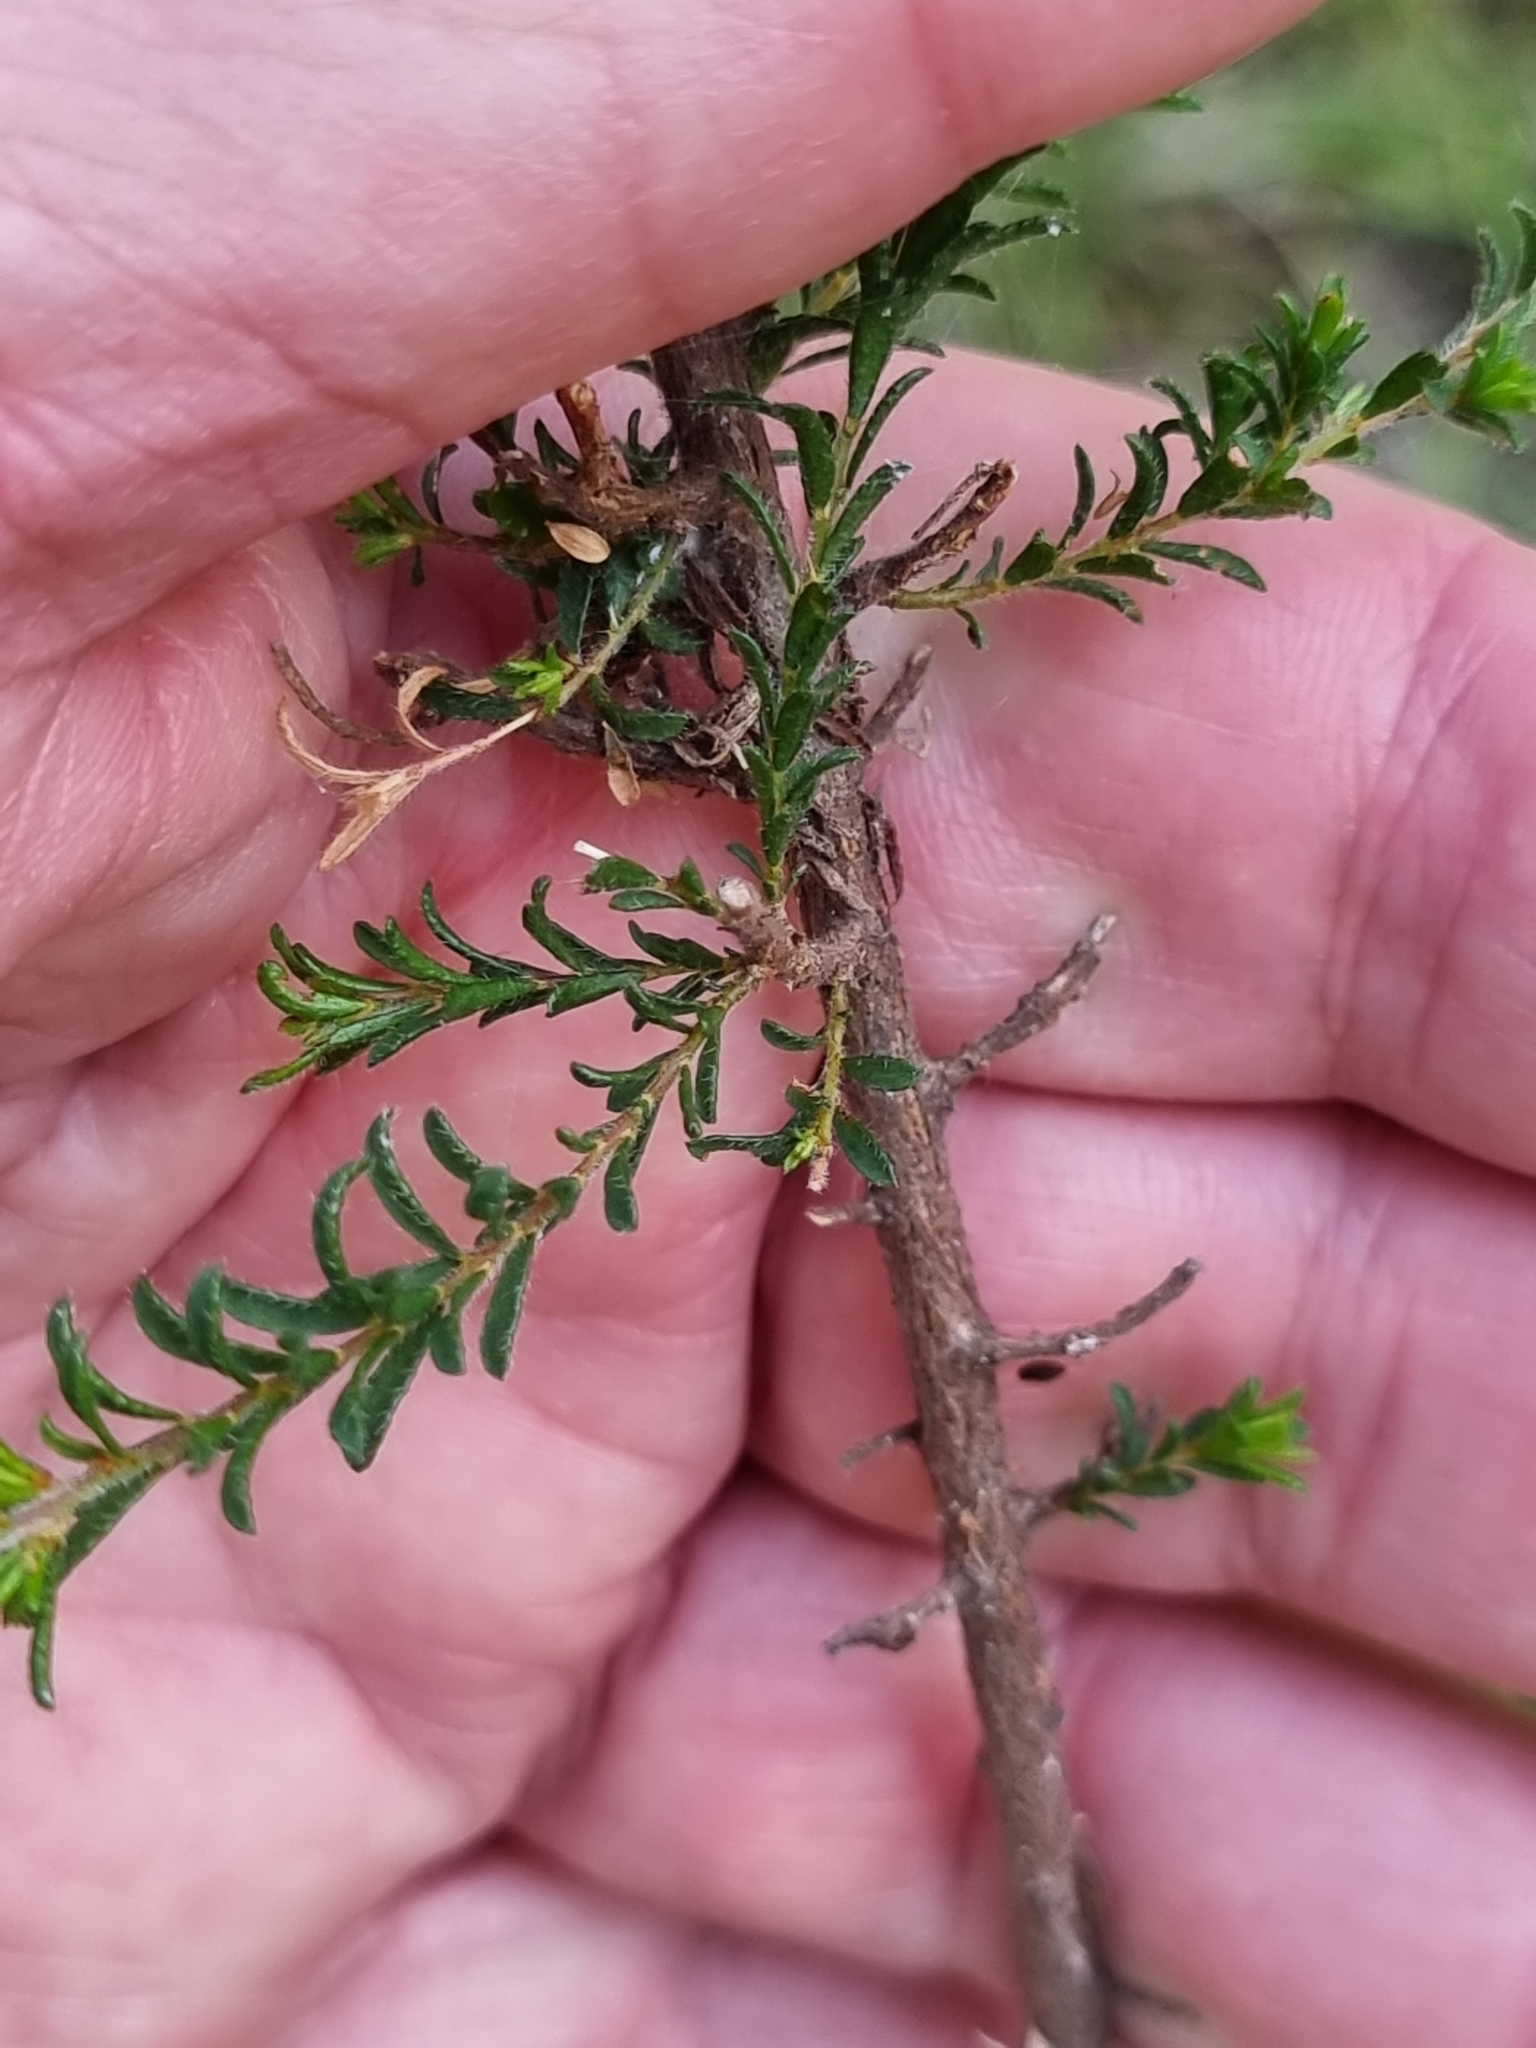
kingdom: Plantae
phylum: Tracheophyta
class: Magnoliopsida
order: Fabales
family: Fabaceae
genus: Pultenaea
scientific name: Pultenaea villosa
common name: Bronze bush-pea
